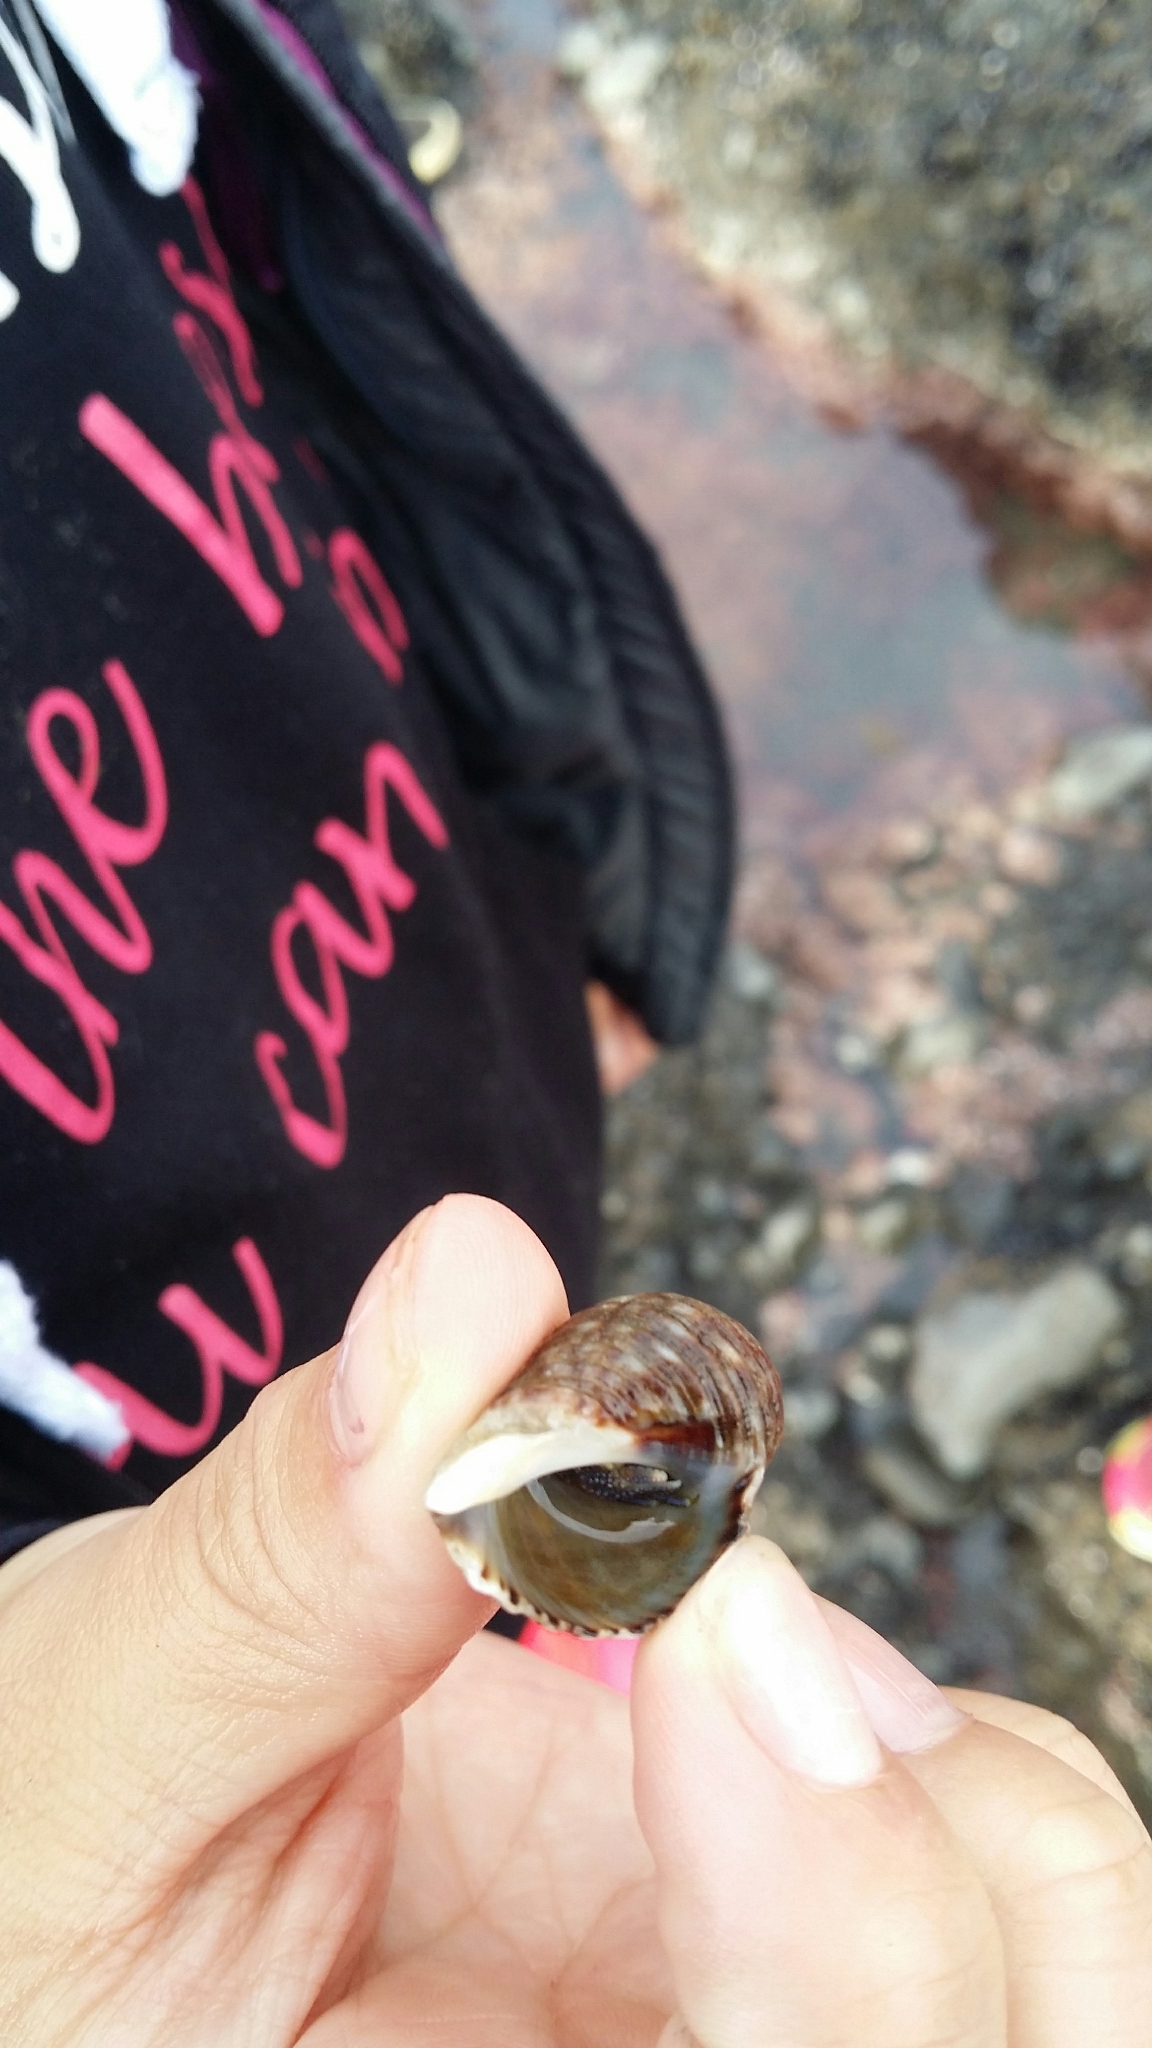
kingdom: Animalia
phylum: Arthropoda
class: Malacostraca
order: Decapoda
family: Paguridae
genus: Pagurus
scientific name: Pagurus novizealandiae
